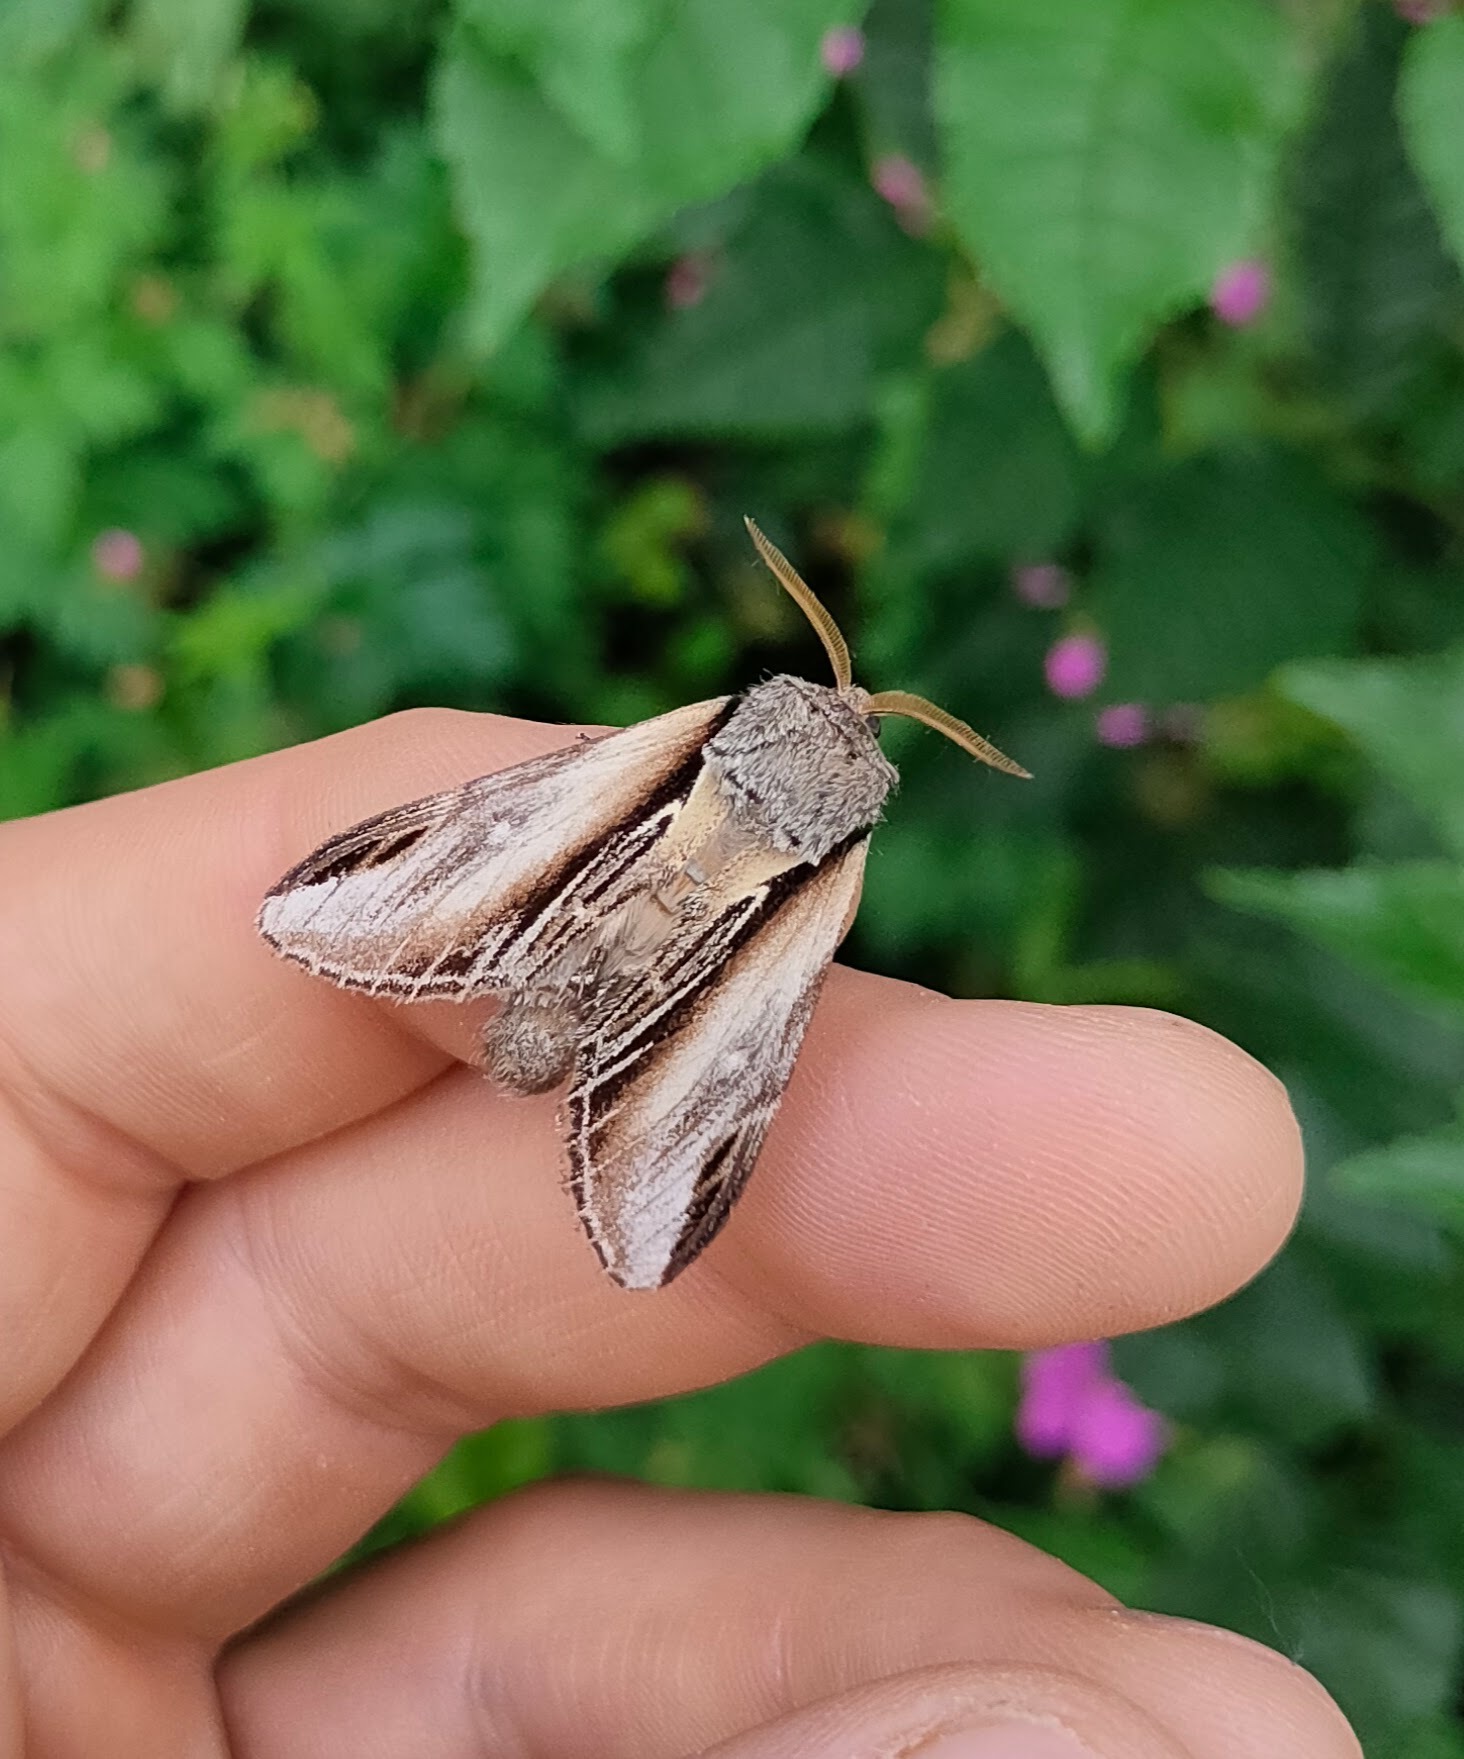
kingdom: Animalia
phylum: Arthropoda
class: Insecta
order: Lepidoptera
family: Notodontidae
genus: Pheosia
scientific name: Pheosia tremula
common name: Swallow prominent
